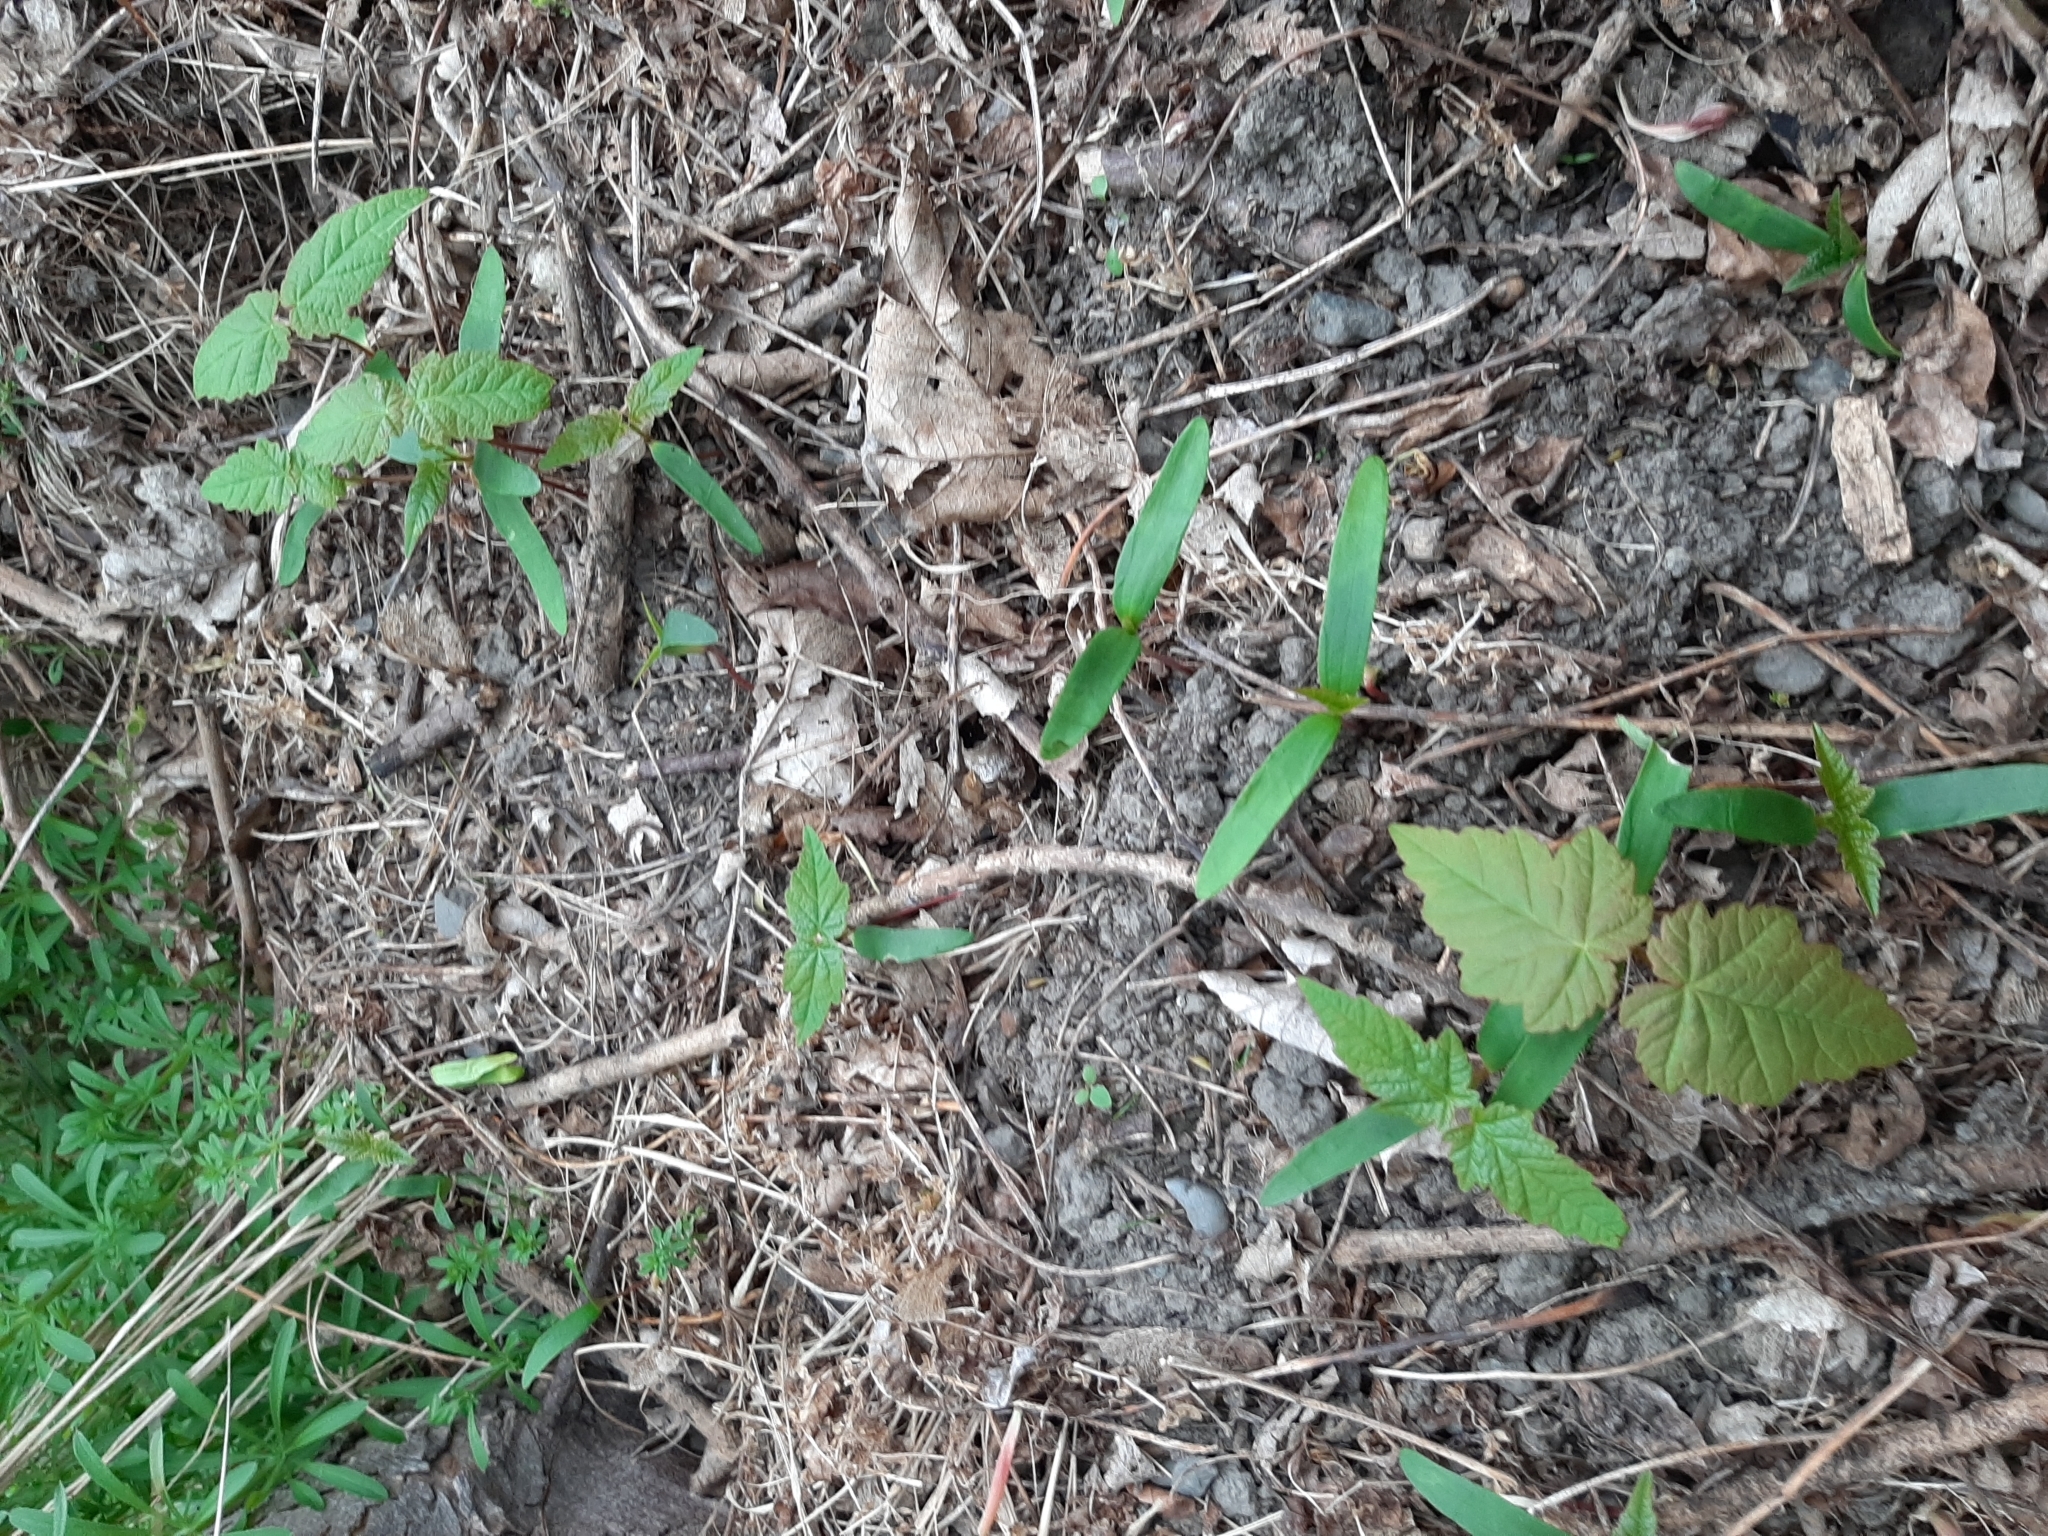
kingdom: Plantae
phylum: Tracheophyta
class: Magnoliopsida
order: Sapindales
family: Sapindaceae
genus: Acer
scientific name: Acer pseudoplatanus
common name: Sycamore
